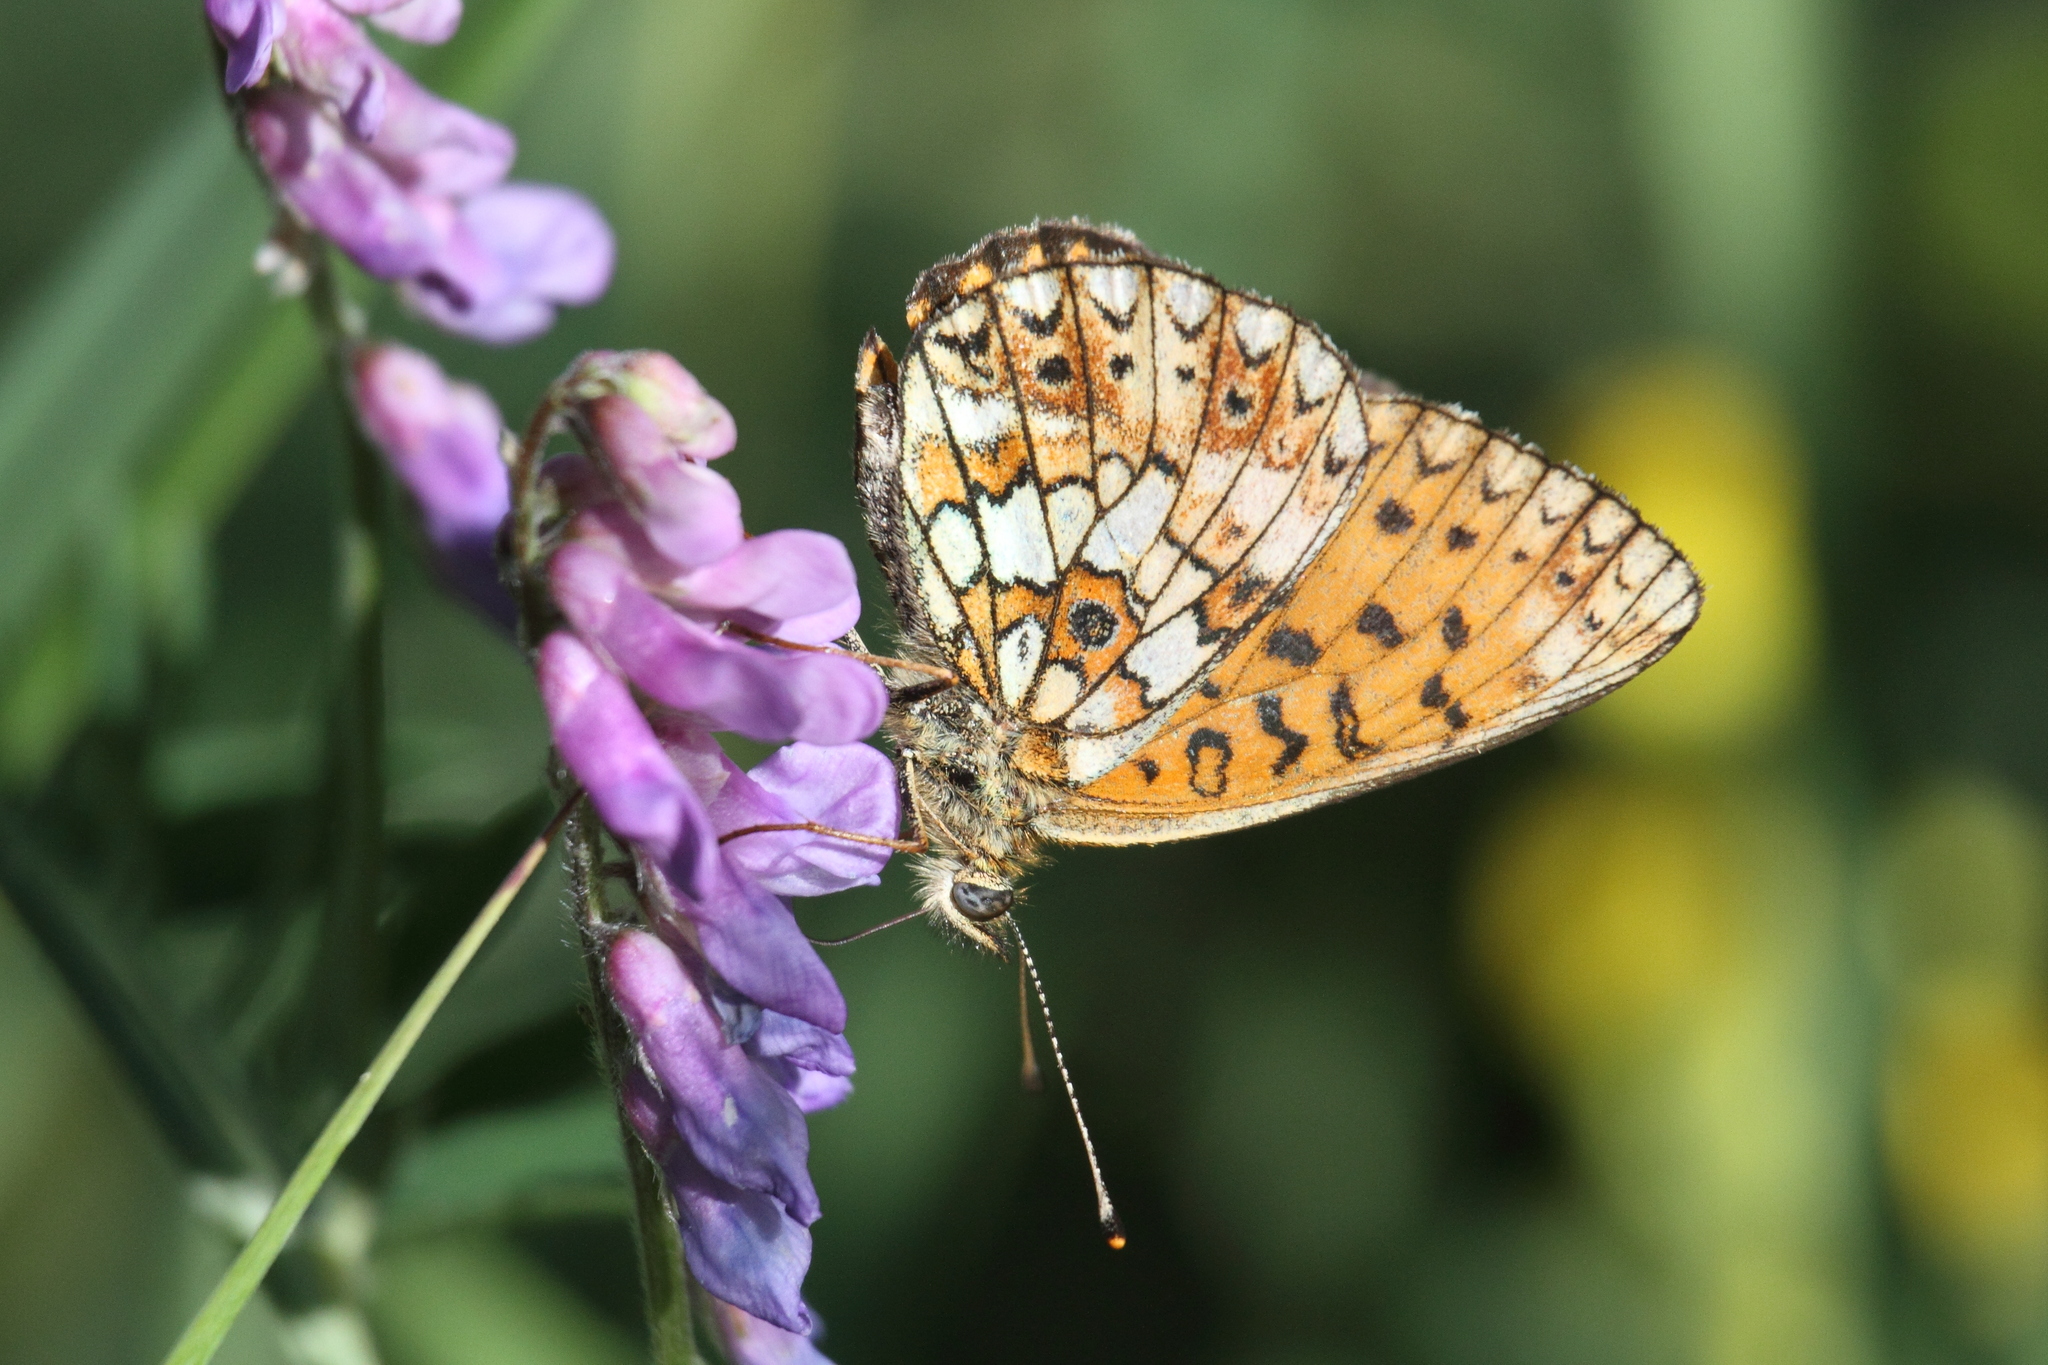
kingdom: Animalia
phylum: Arthropoda
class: Insecta
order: Lepidoptera
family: Nymphalidae
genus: Boloria
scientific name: Boloria selene
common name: Small pearl-bordered fritillary
